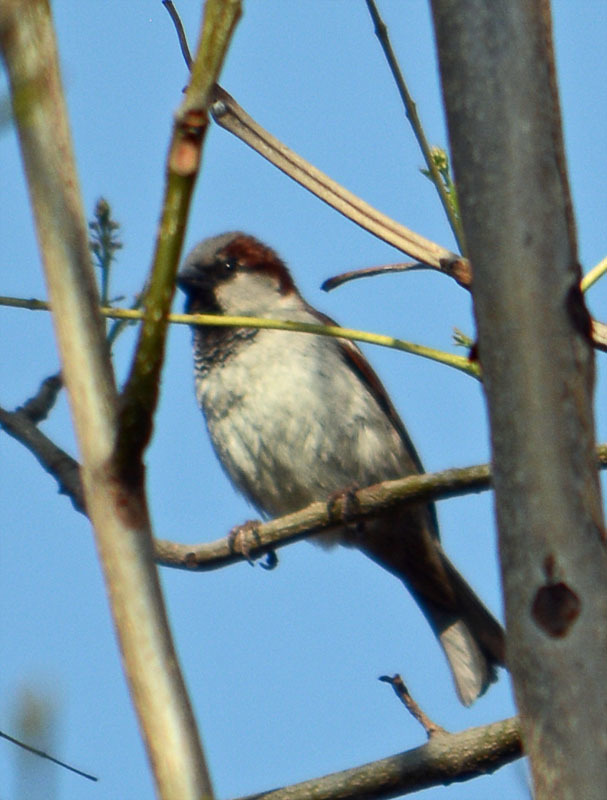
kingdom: Animalia
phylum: Chordata
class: Aves
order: Passeriformes
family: Passeridae
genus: Passer
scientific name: Passer domesticus
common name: House sparrow
